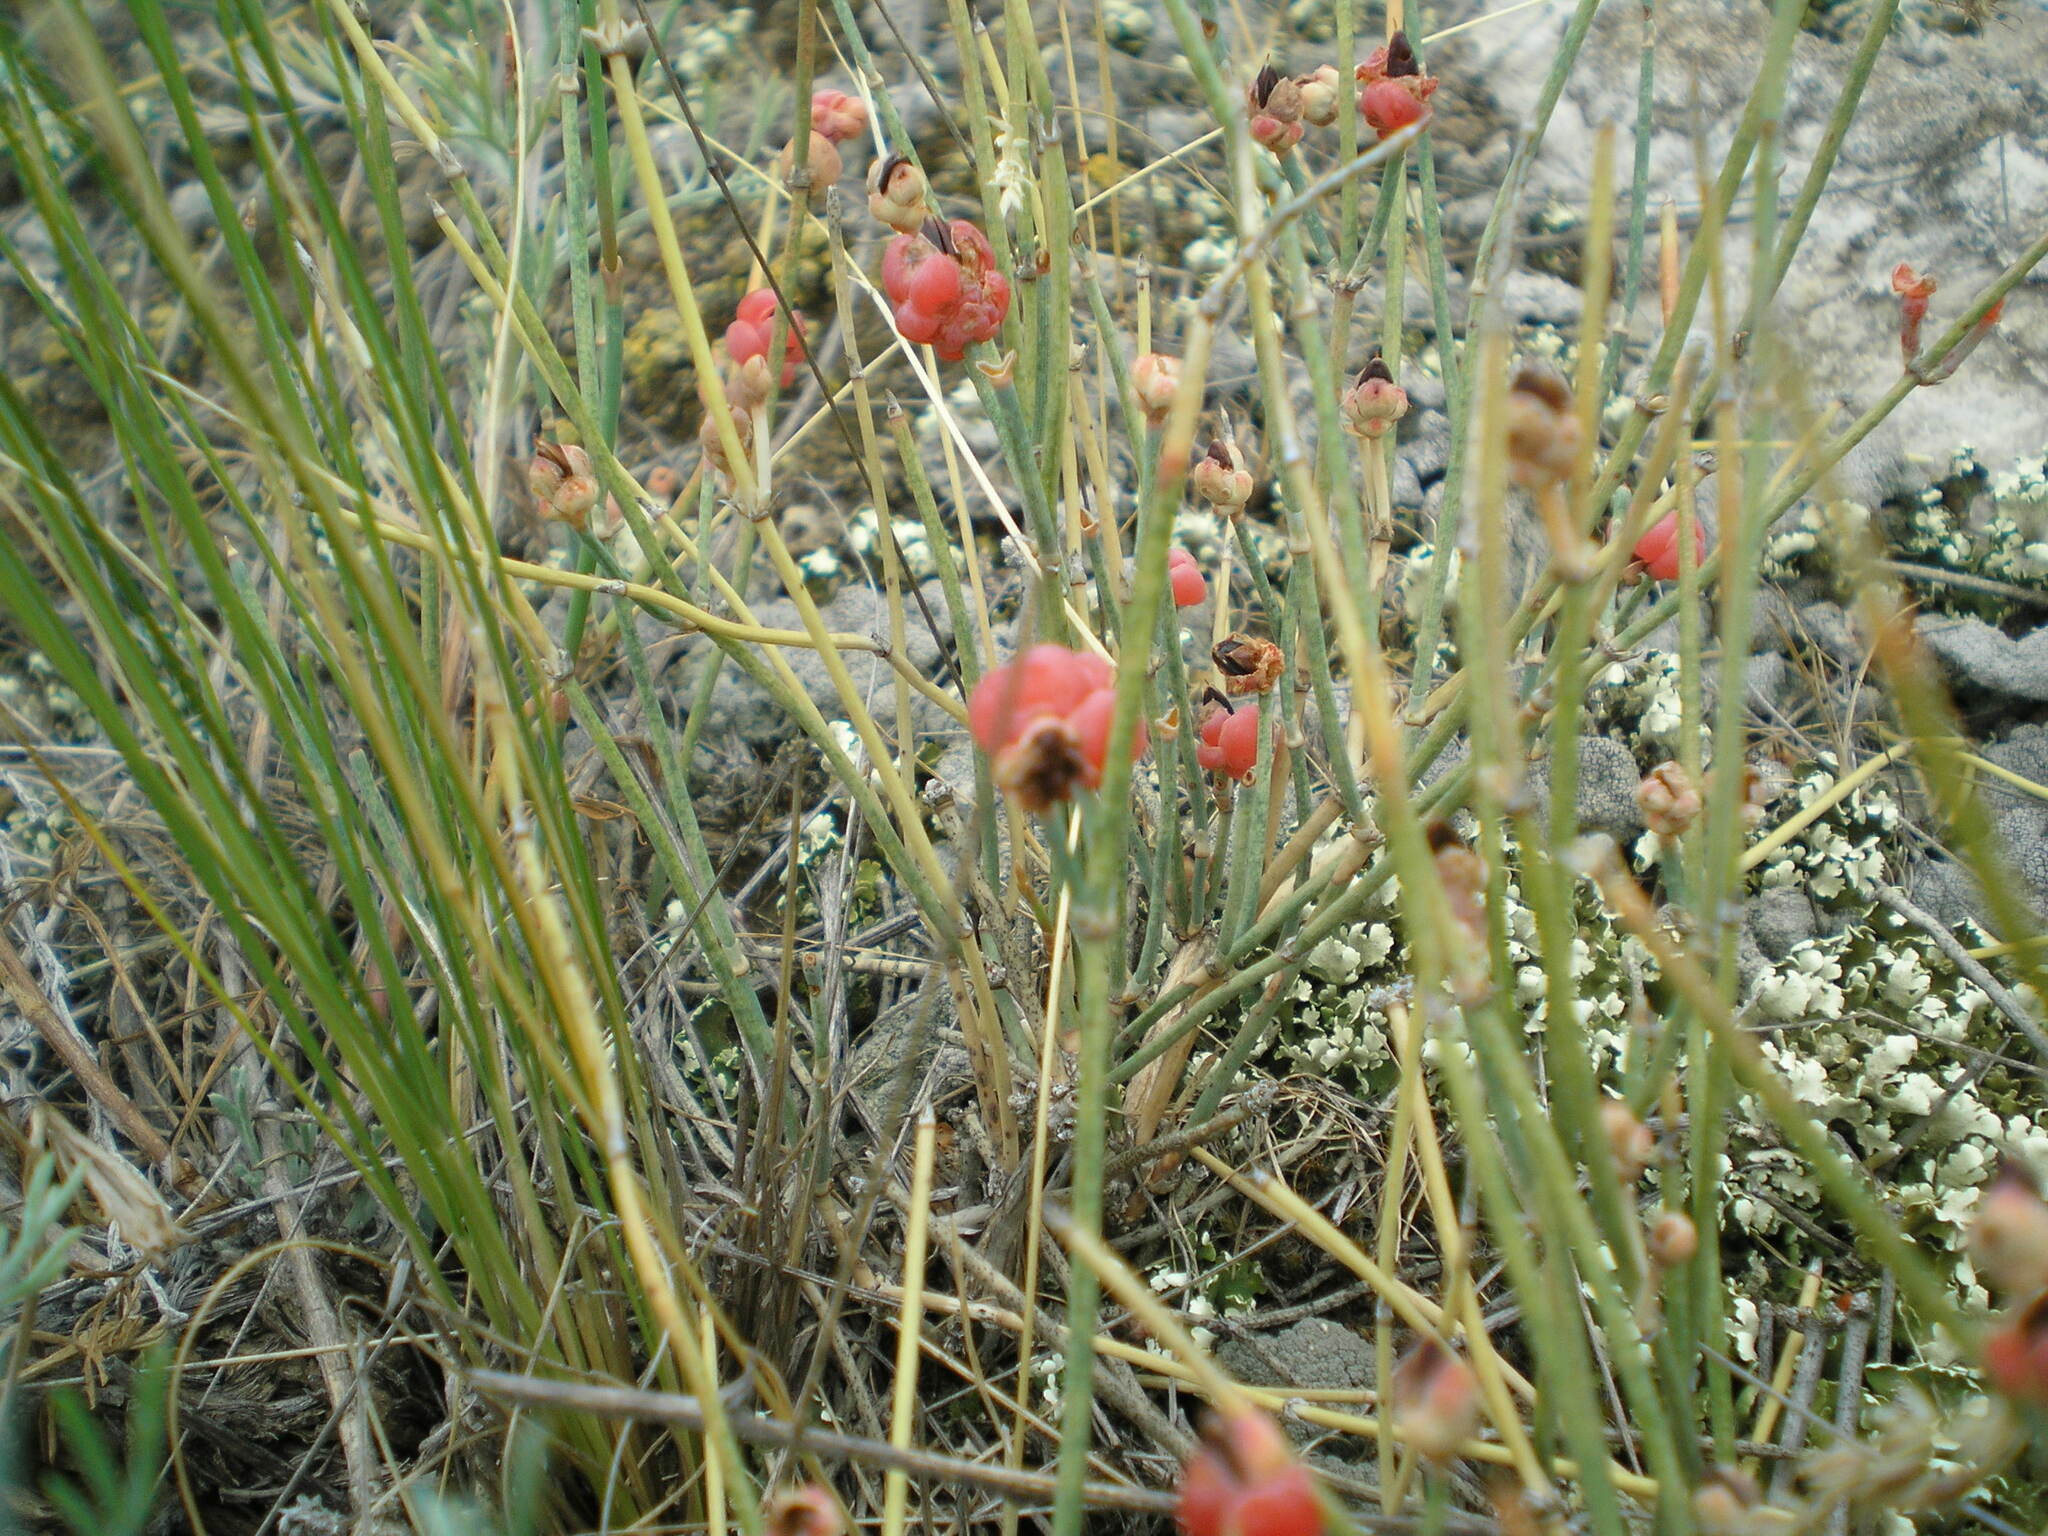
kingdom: Plantae
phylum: Tracheophyta
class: Gnetopsida
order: Ephedrales
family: Ephedraceae
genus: Ephedra
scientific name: Ephedra distachya
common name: Sea grape
